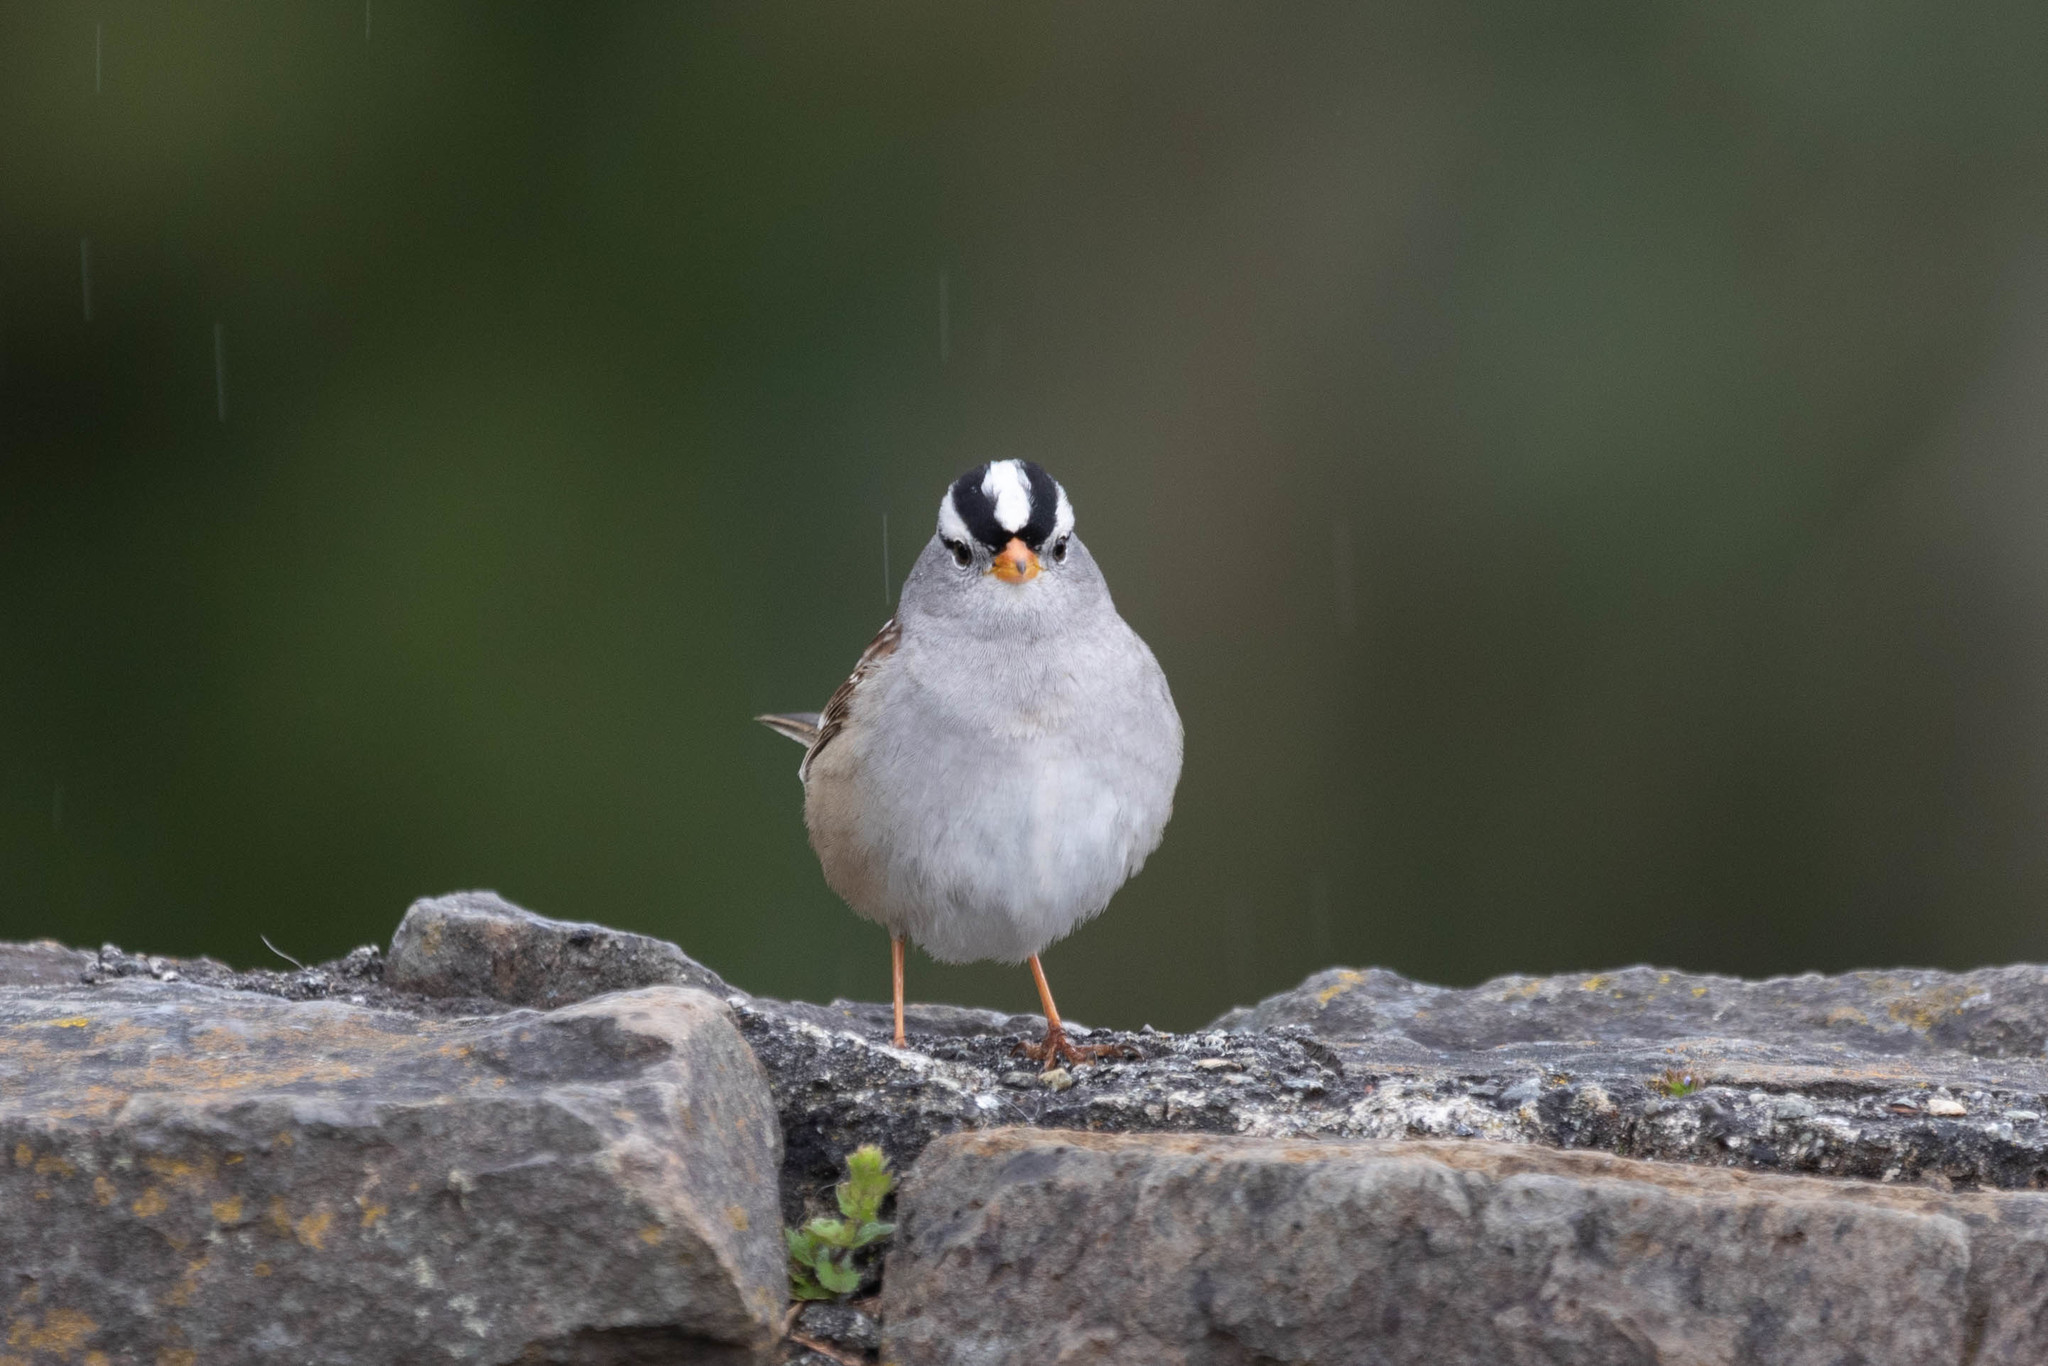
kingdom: Animalia
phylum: Chordata
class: Aves
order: Passeriformes
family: Passerellidae
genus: Zonotrichia
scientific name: Zonotrichia leucophrys
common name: White-crowned sparrow
